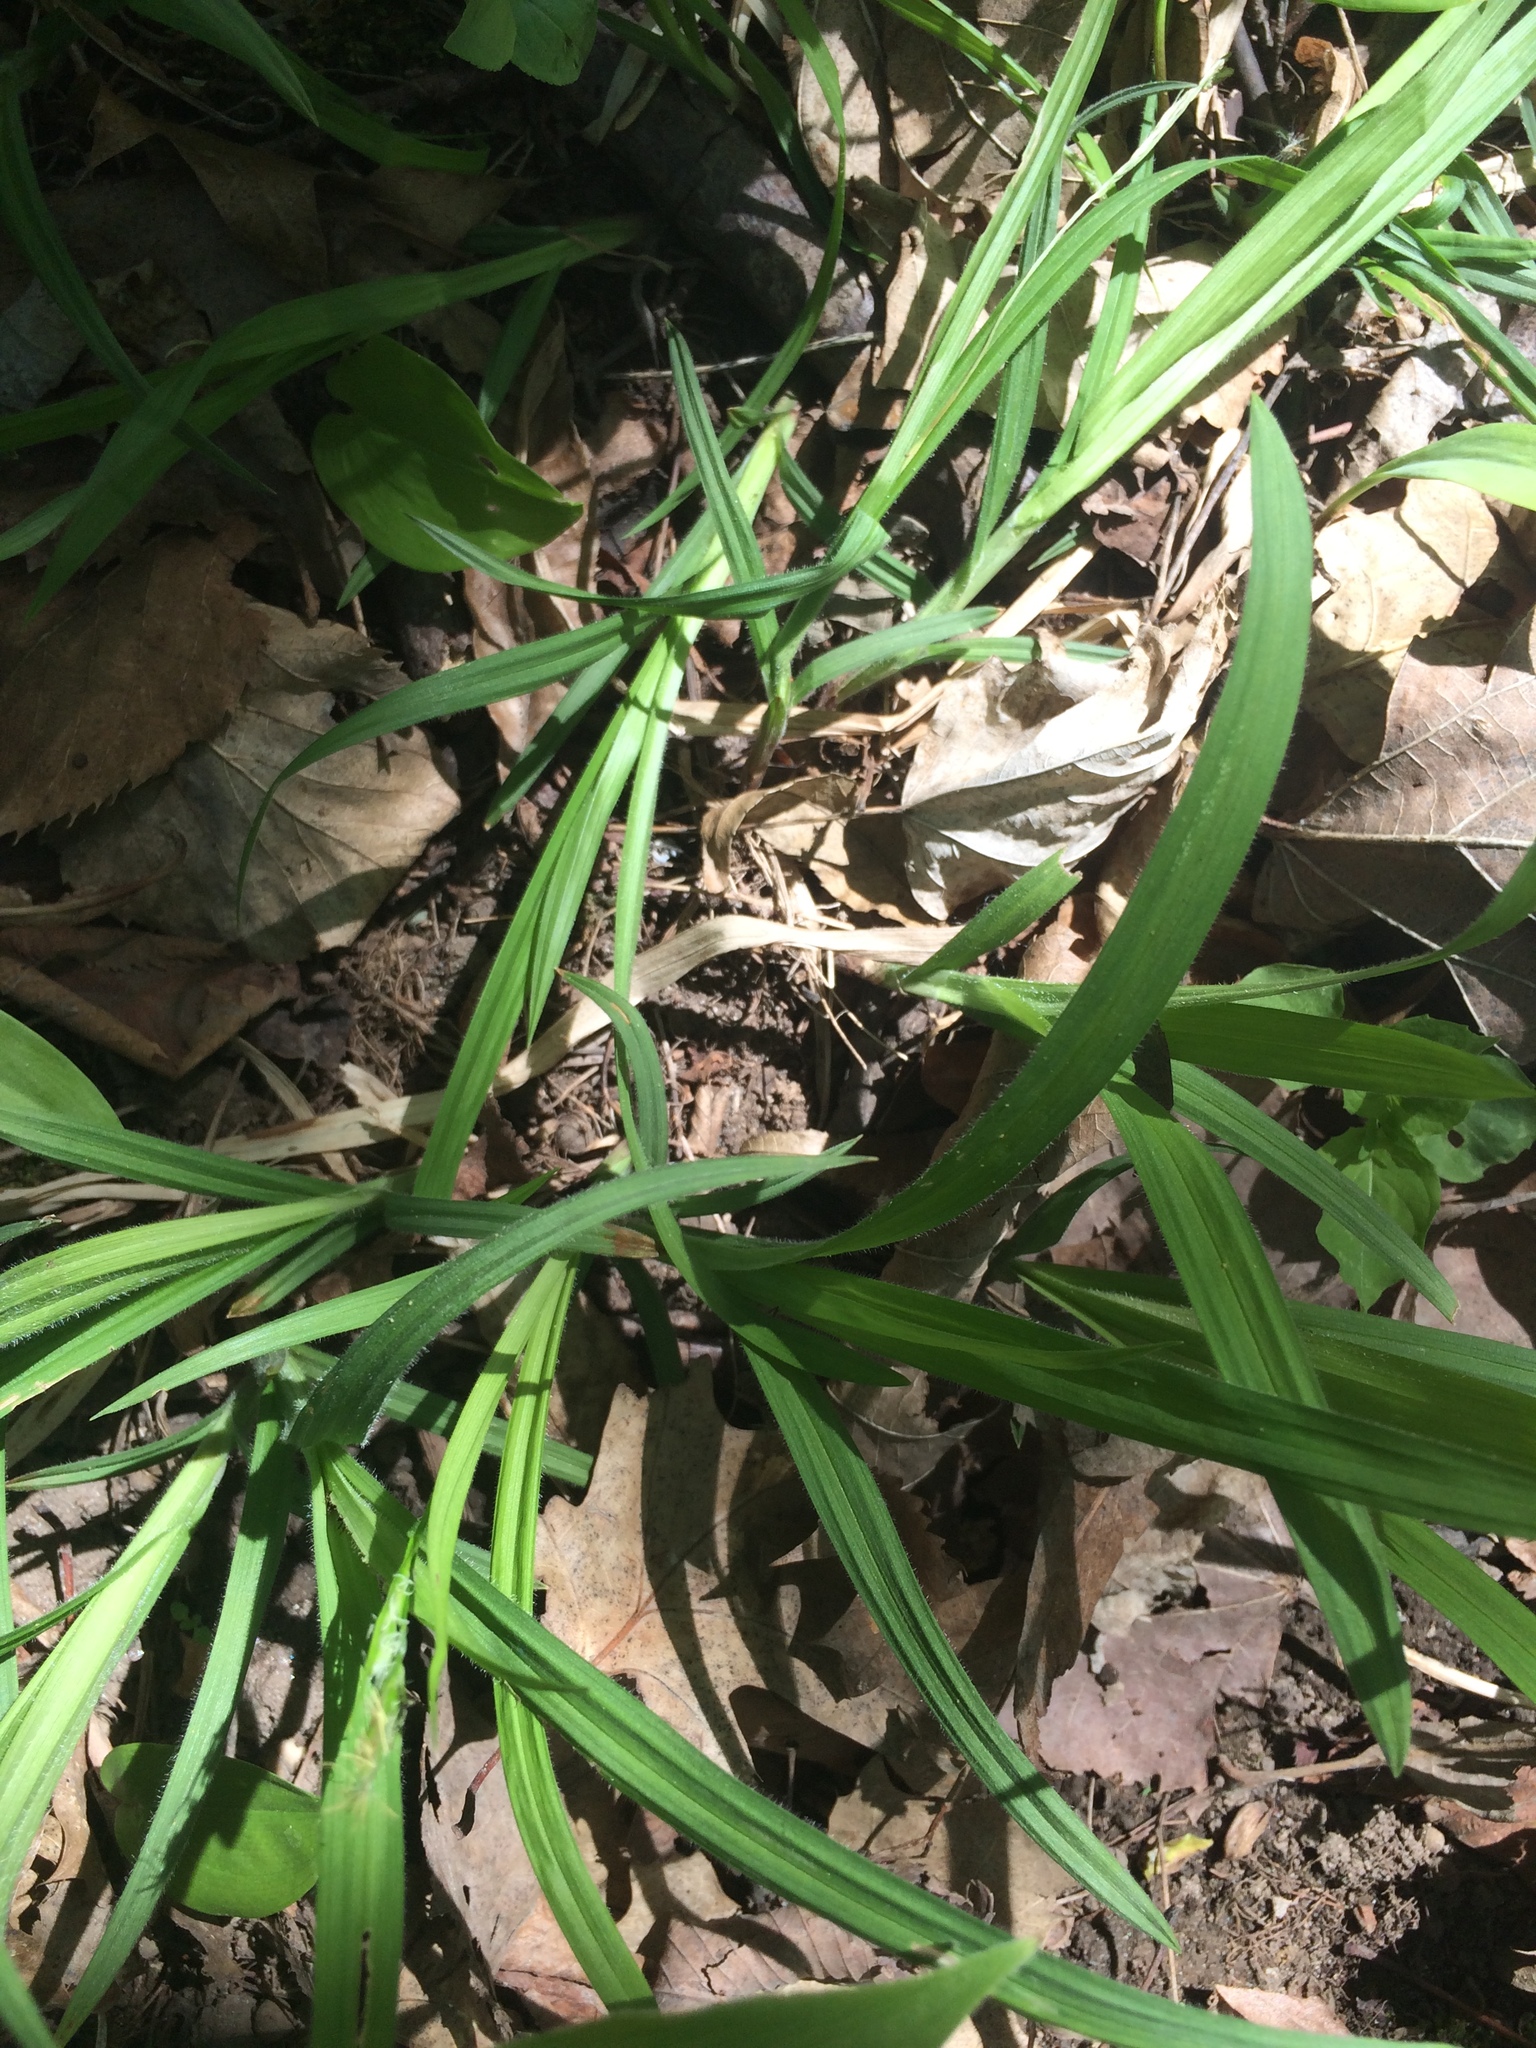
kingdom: Plantae
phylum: Tracheophyta
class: Liliopsida
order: Poales
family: Cyperaceae
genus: Carex
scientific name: Carex hirtifolia
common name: Hairy sedge
